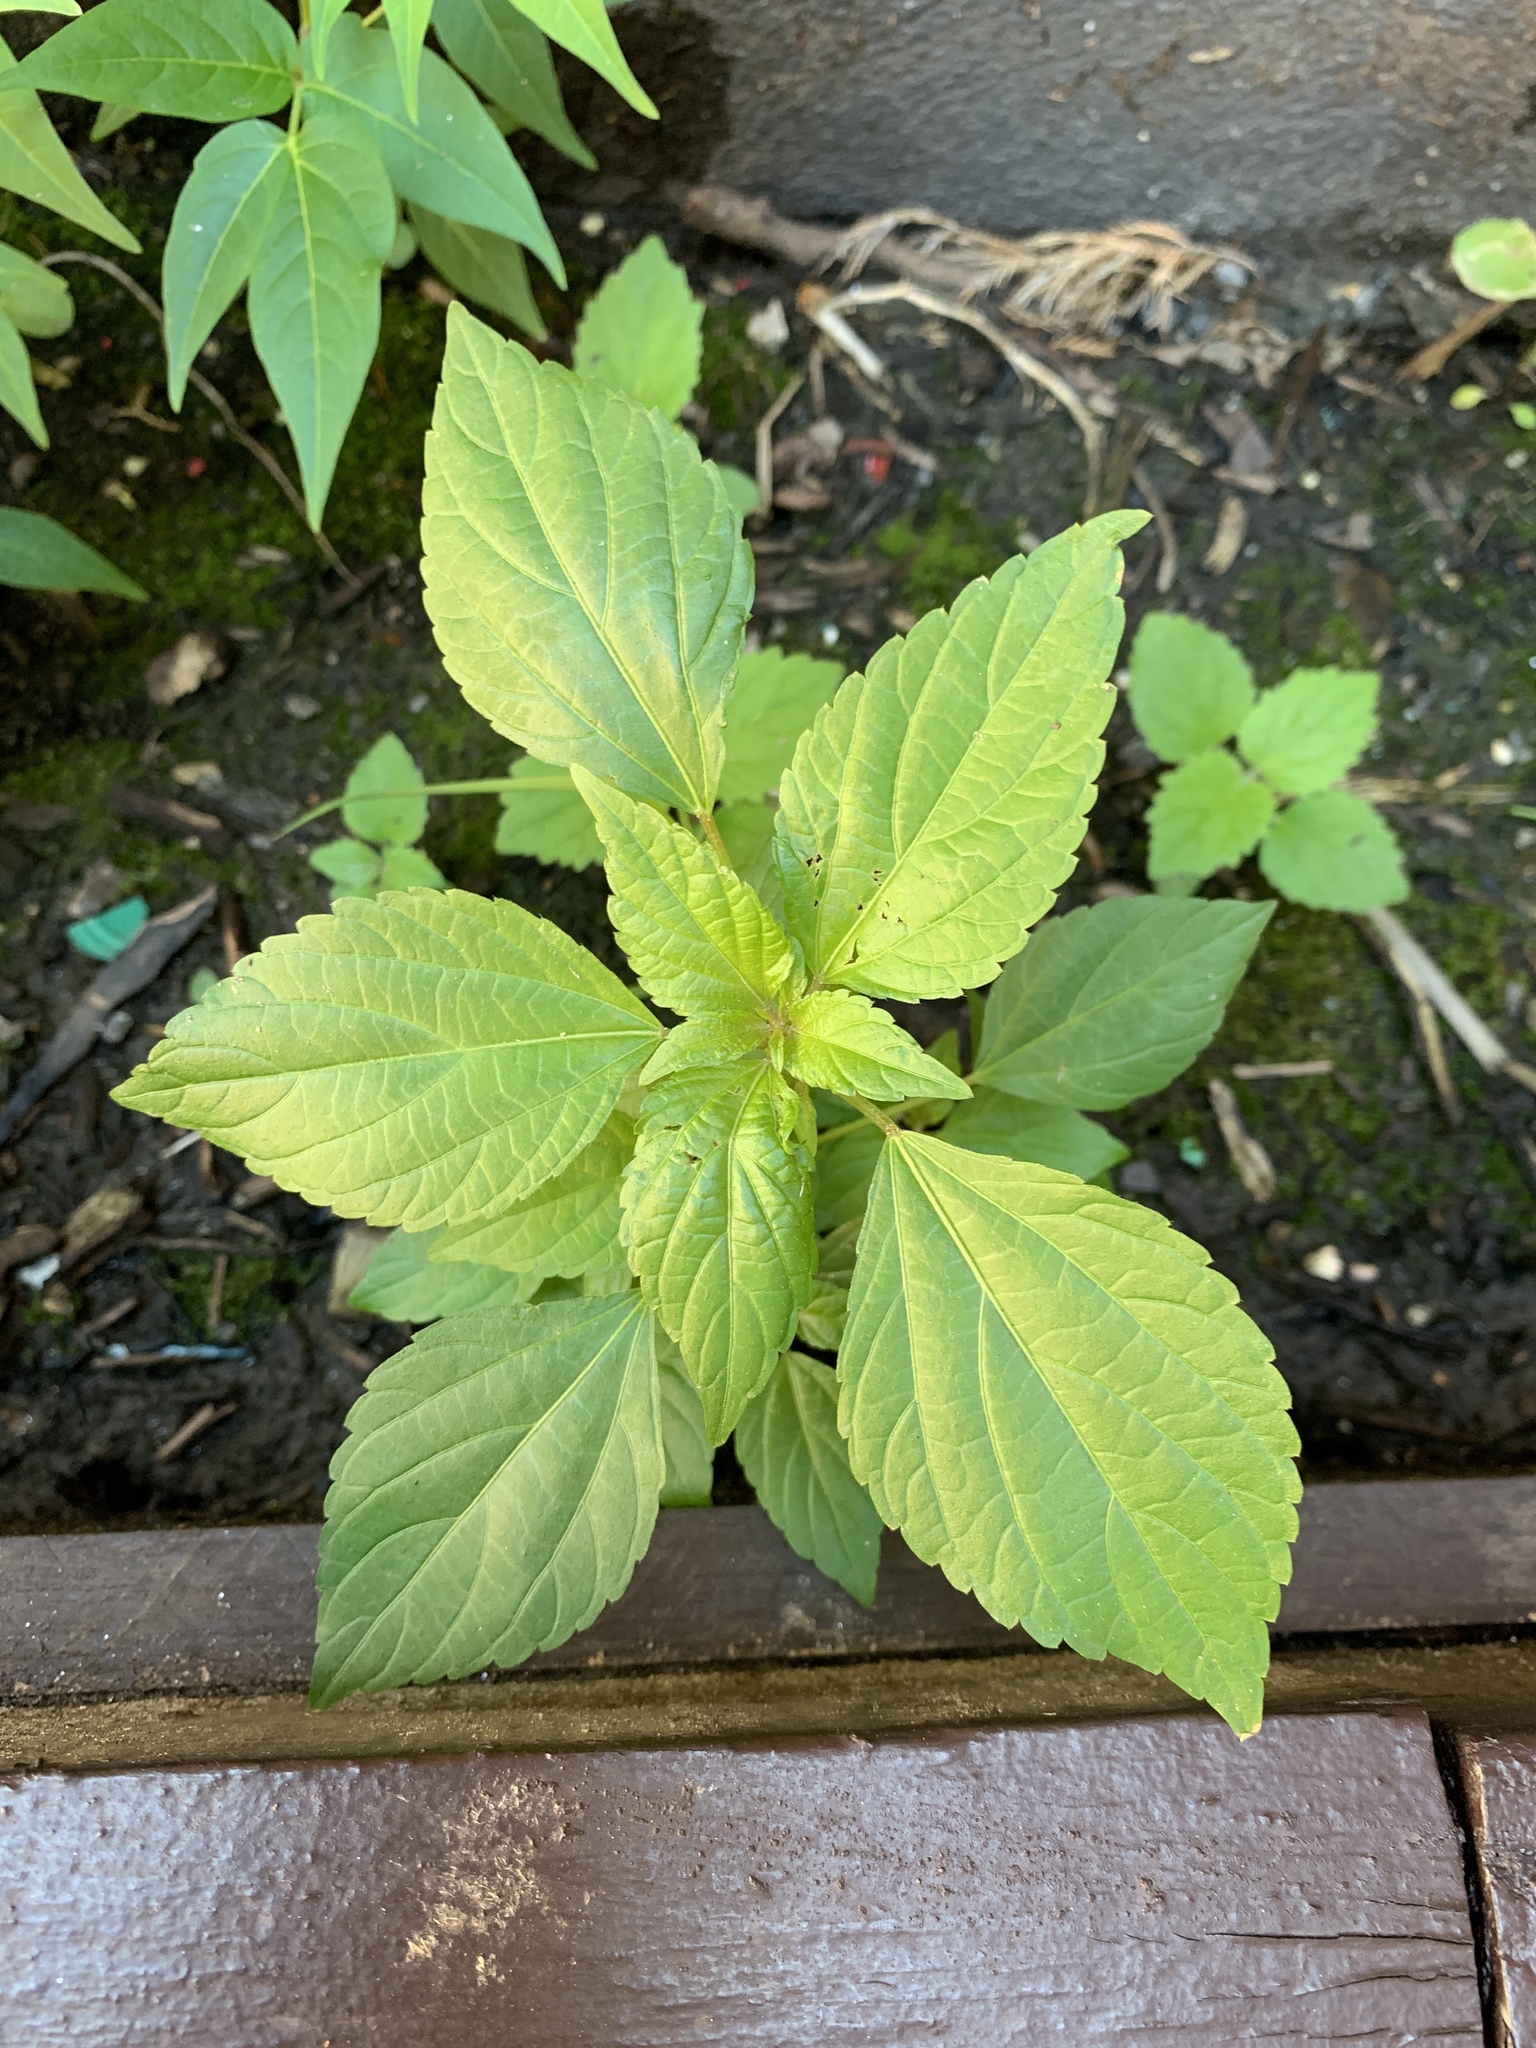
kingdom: Plantae
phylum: Tracheophyta
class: Magnoliopsida
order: Malpighiales
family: Euphorbiaceae
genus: Acalypha
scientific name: Acalypha rhomboidea
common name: Rhombic copperleaf
